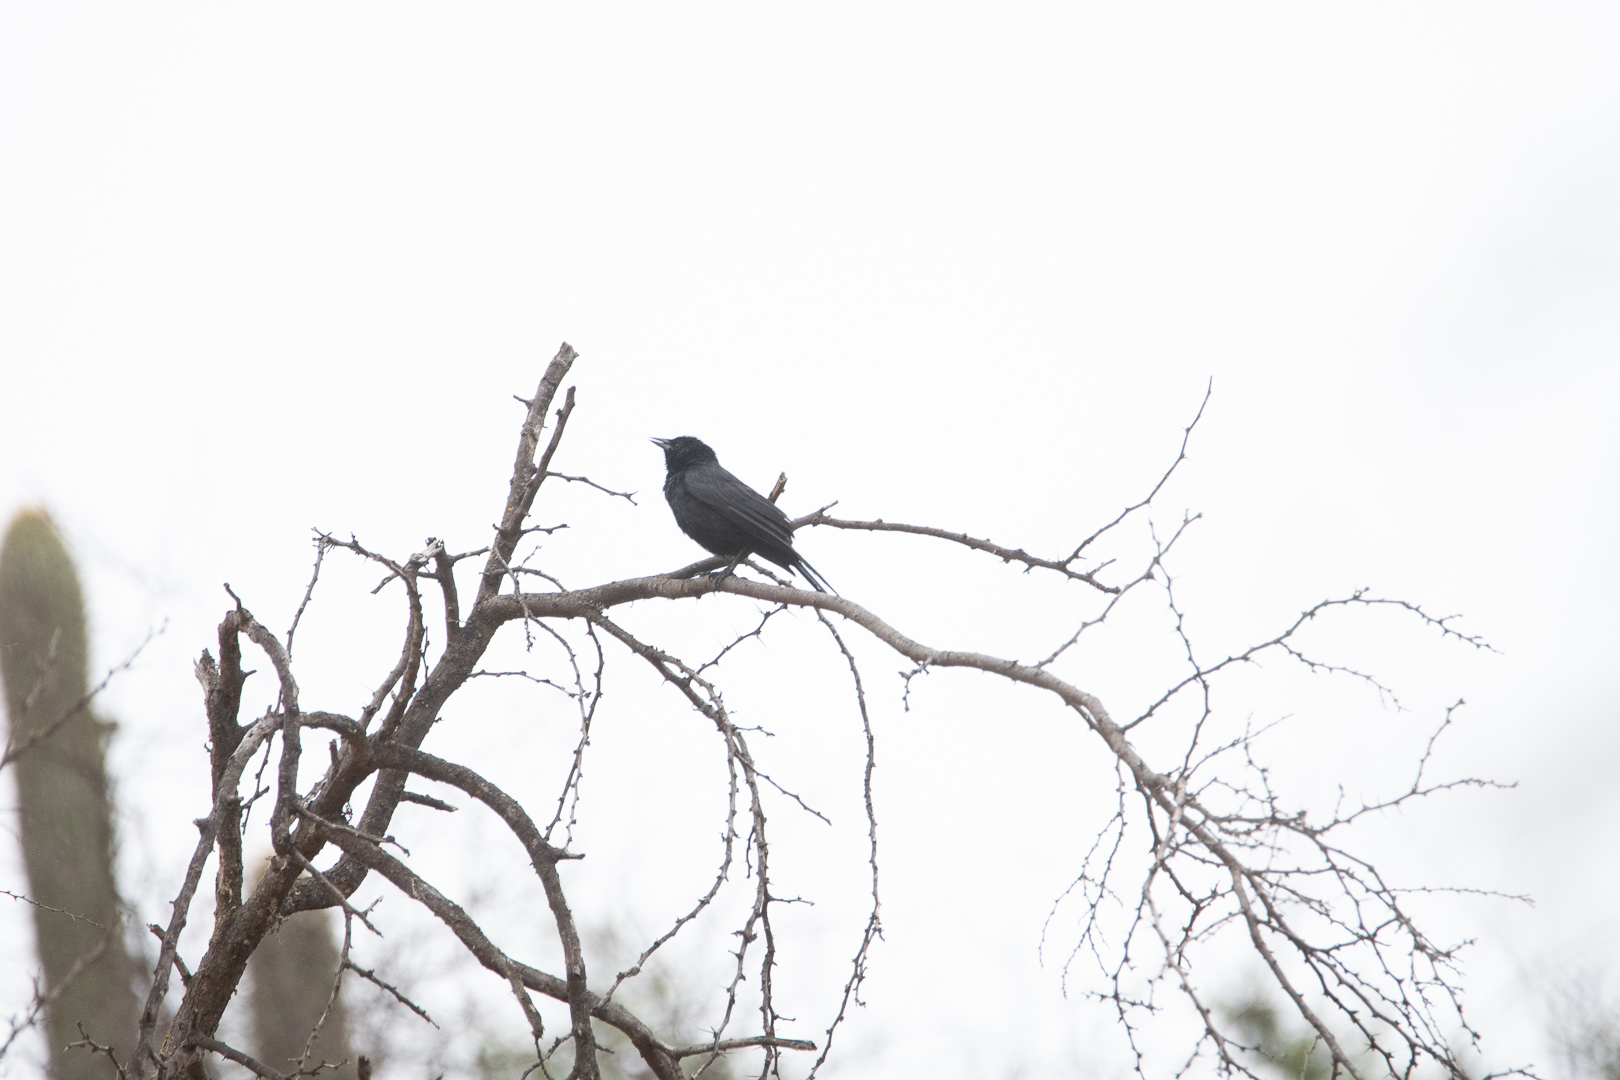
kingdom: Animalia
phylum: Chordata
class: Aves
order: Passeriformes
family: Icteridae
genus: Curaeus
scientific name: Curaeus curaeus
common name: Austral blackbird
